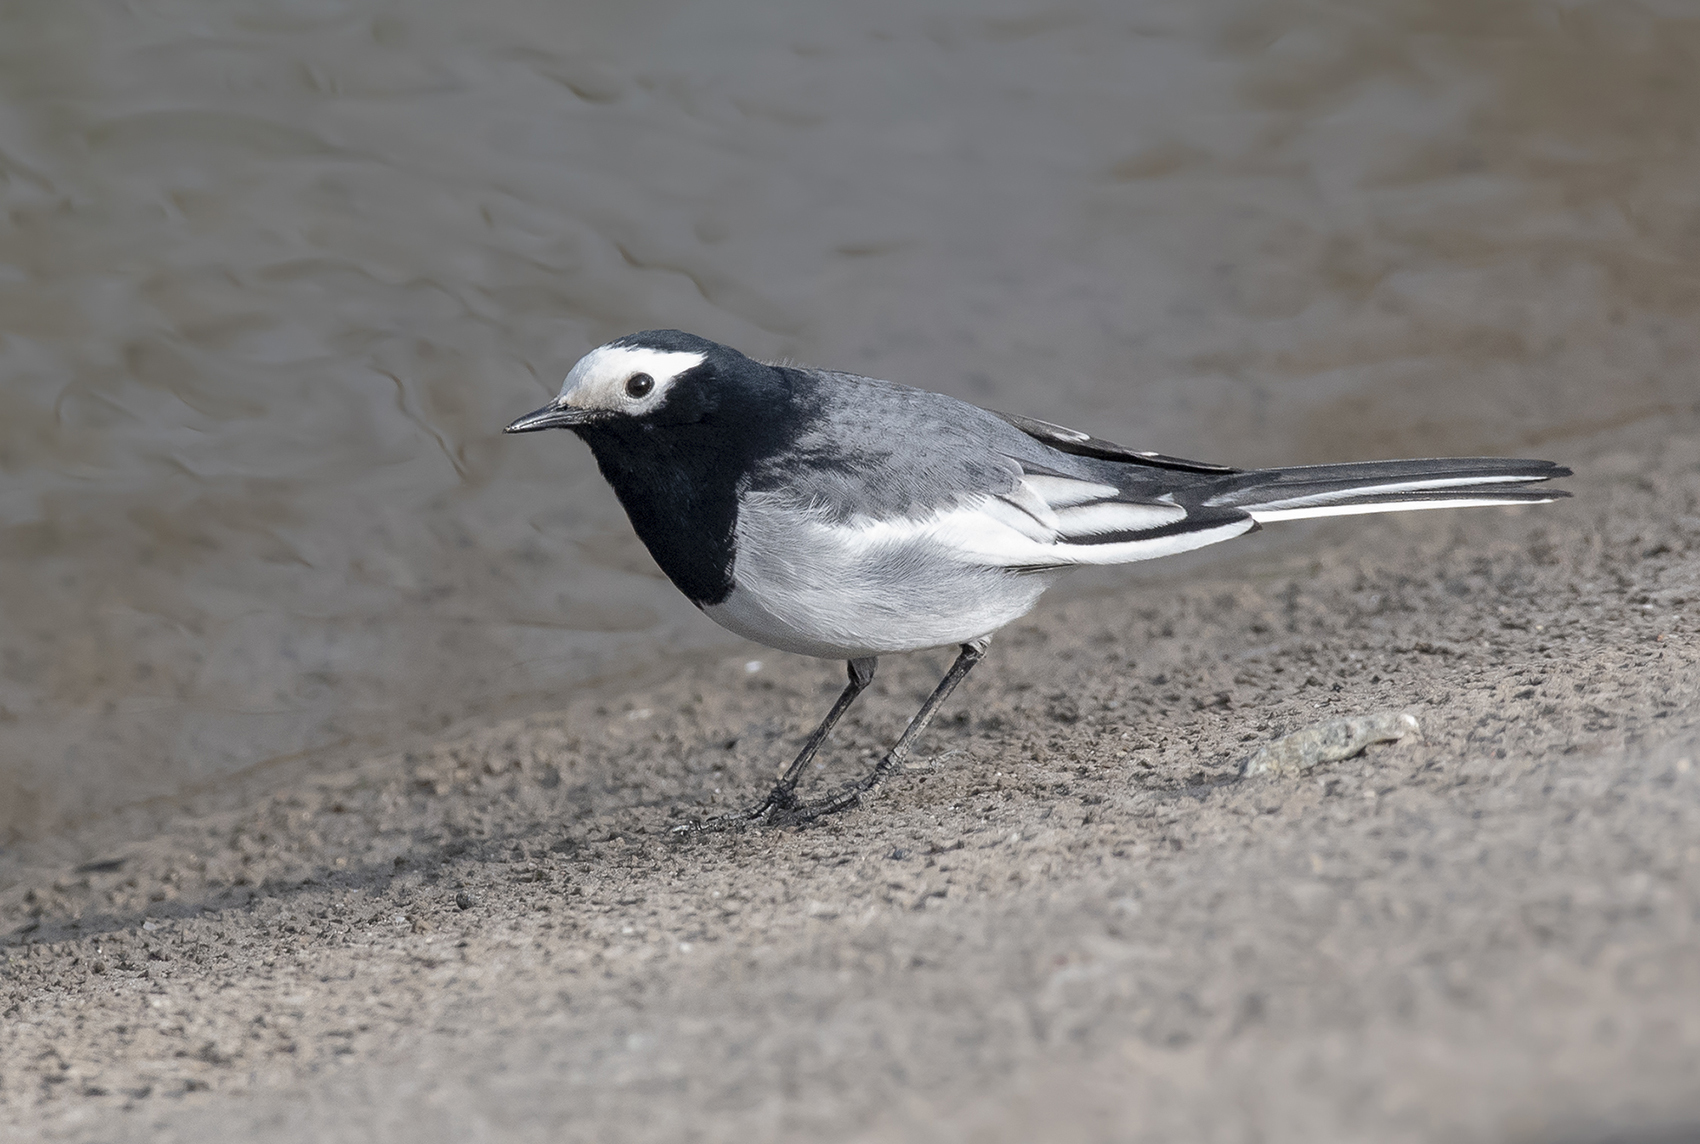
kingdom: Animalia
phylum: Chordata
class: Aves
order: Passeriformes
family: Motacillidae
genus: Motacilla
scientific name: Motacilla alba
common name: White wagtail
